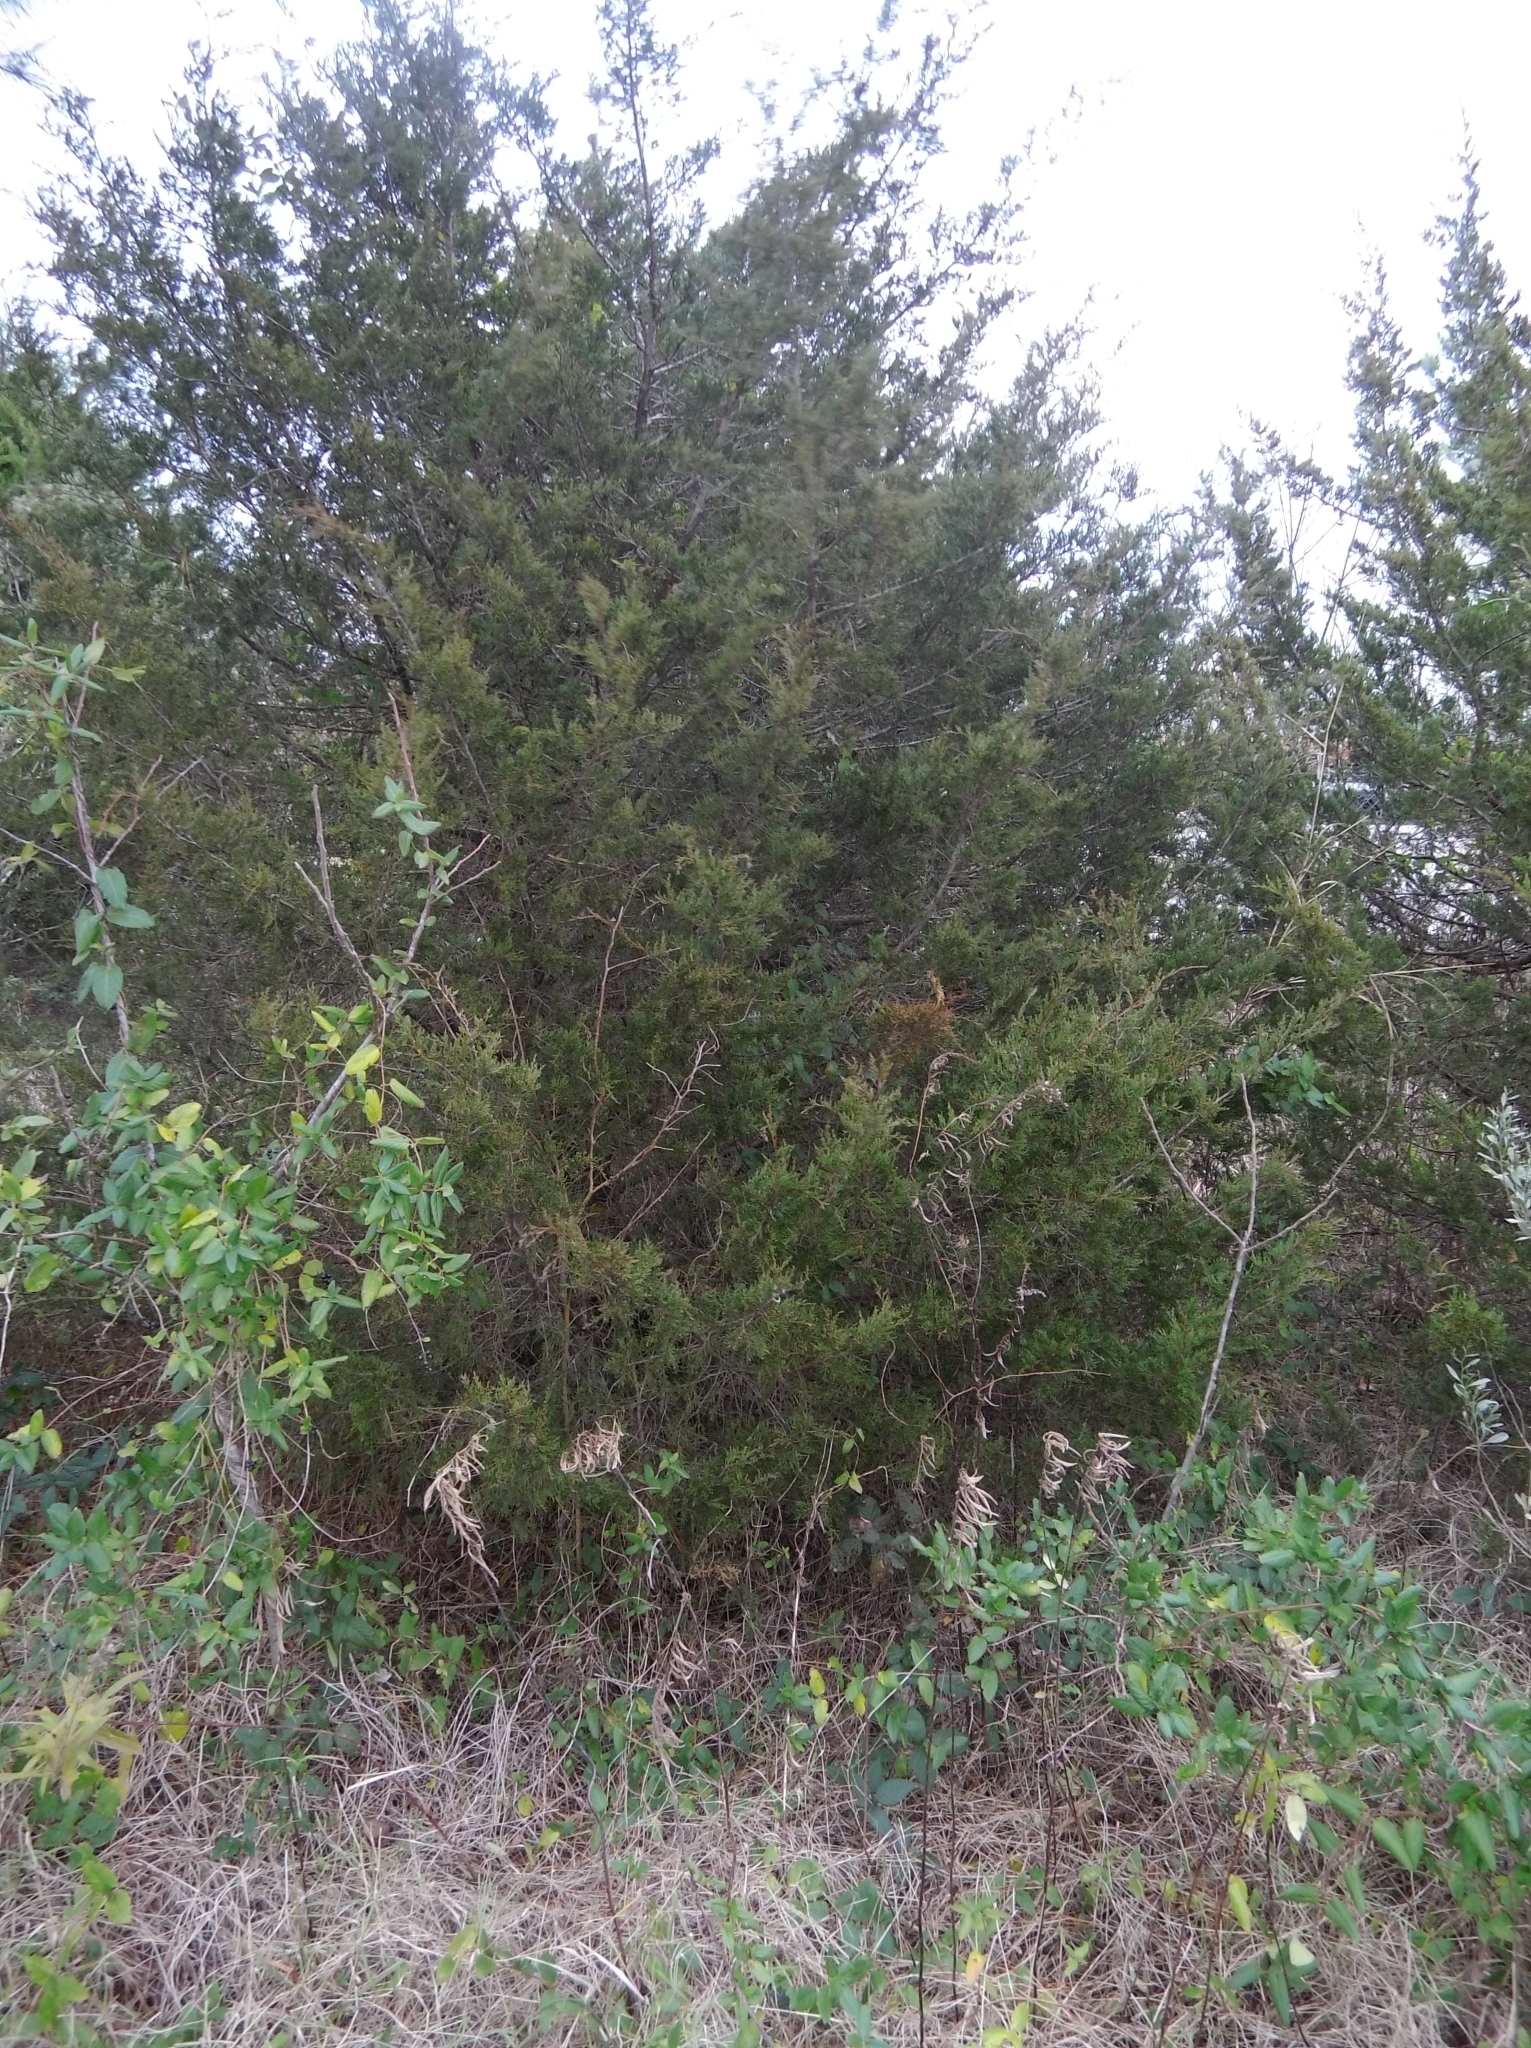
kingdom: Plantae
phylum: Tracheophyta
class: Pinopsida
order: Pinales
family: Cupressaceae
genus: Juniperus
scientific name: Juniperus virginiana
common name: Red juniper
